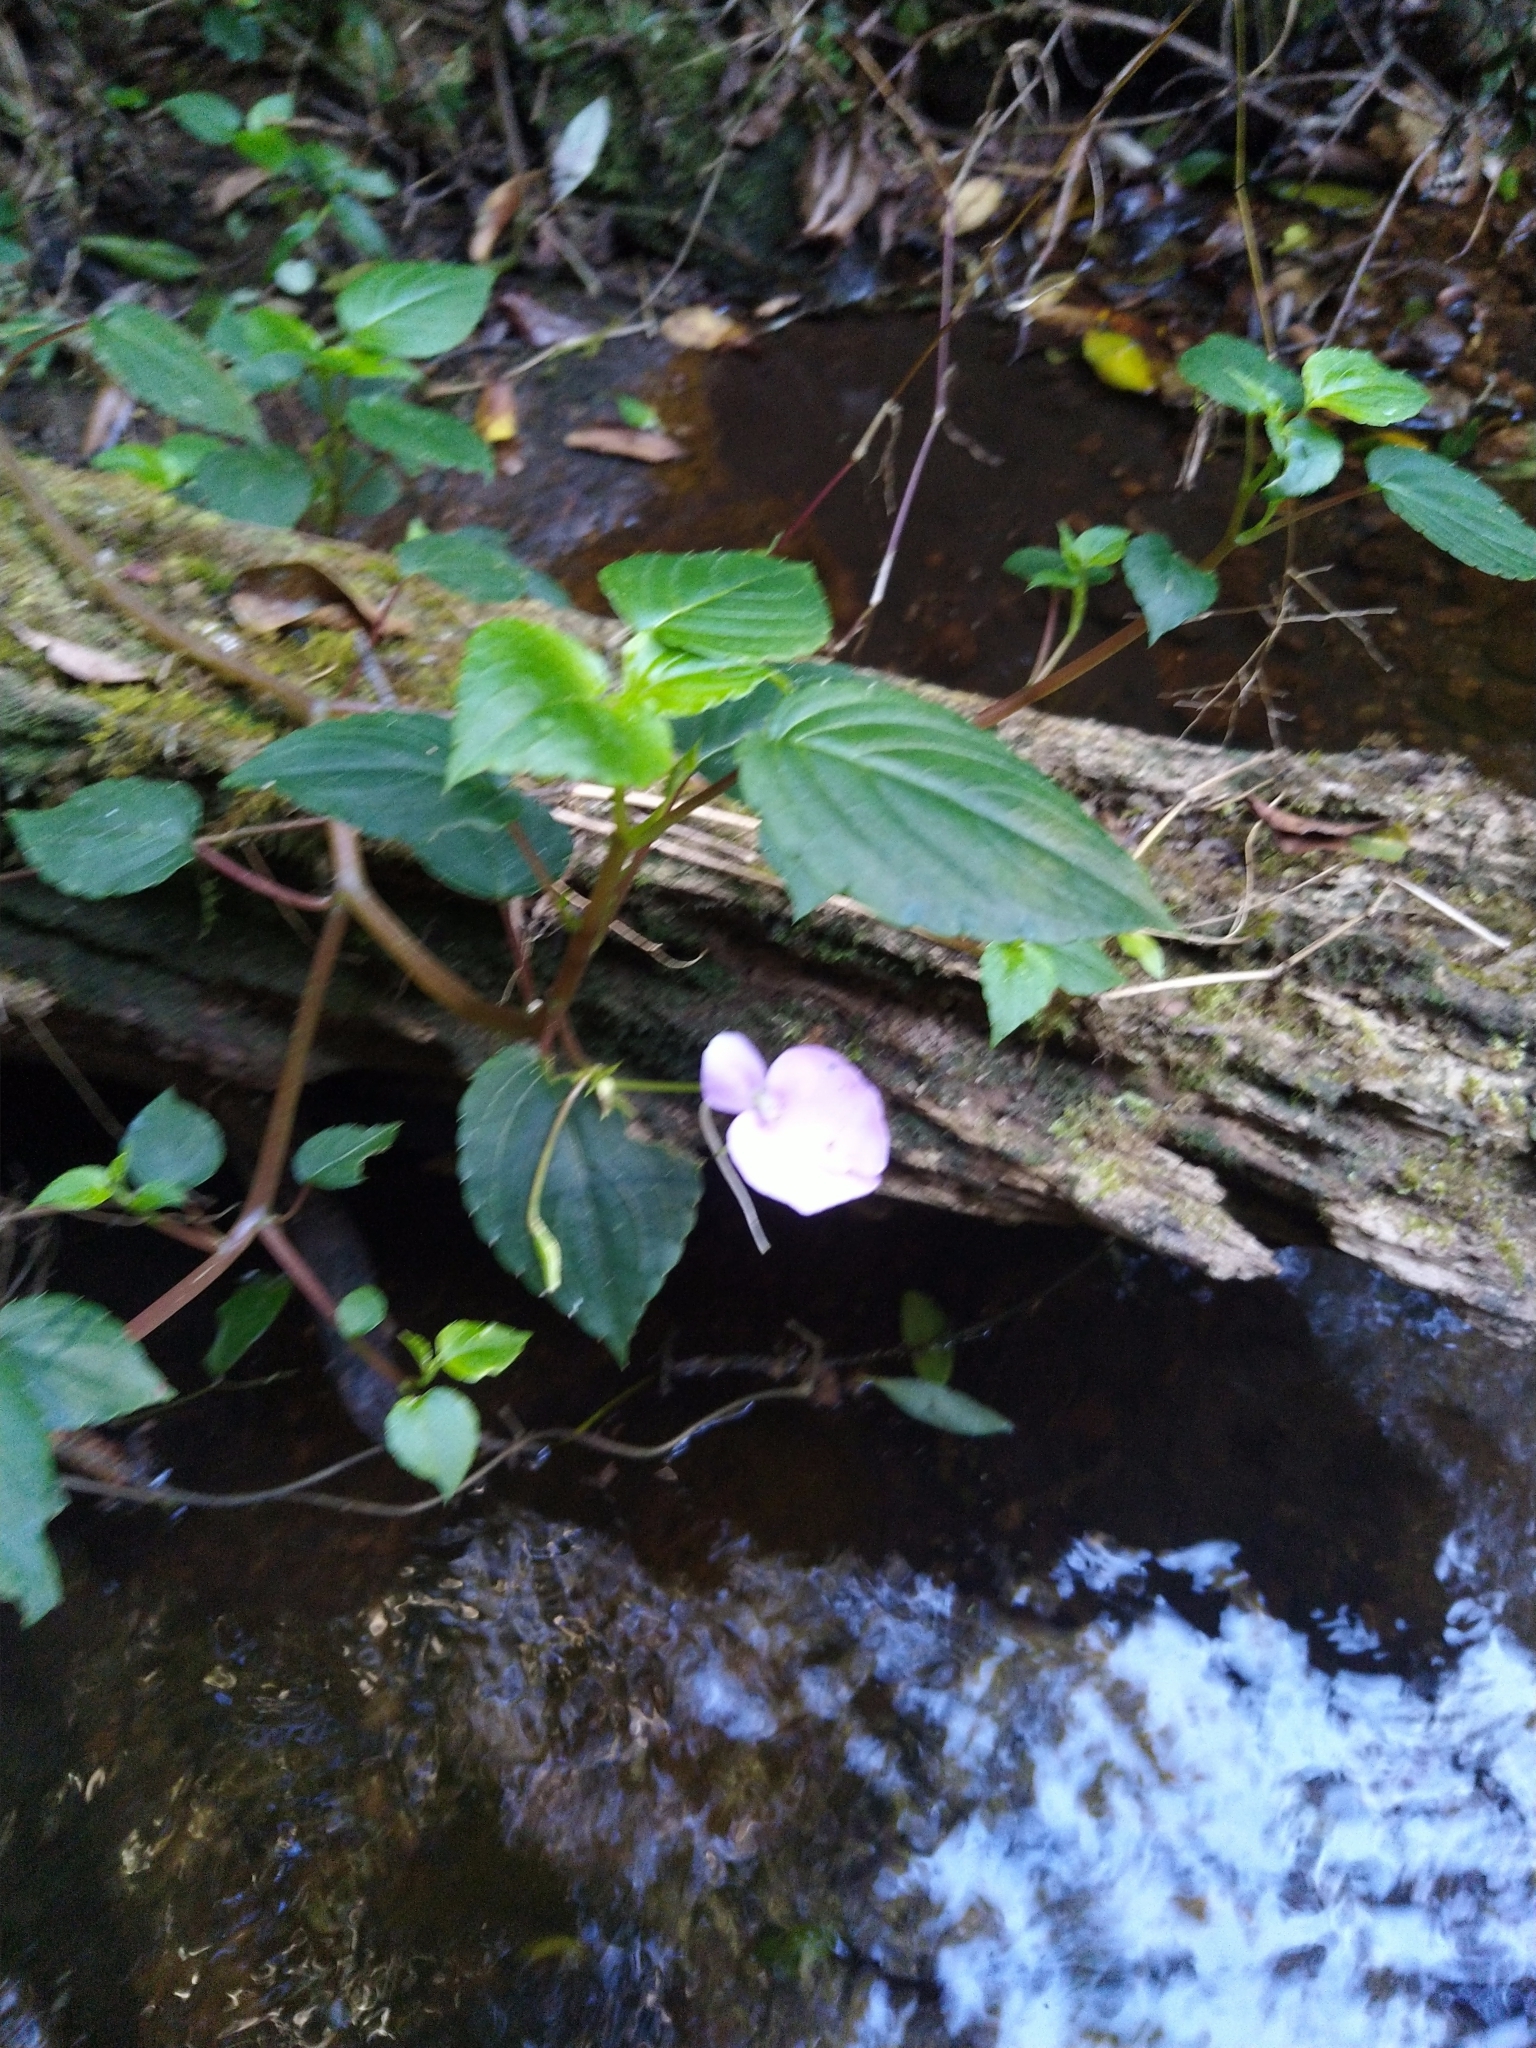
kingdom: Plantae
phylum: Tracheophyta
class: Magnoliopsida
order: Ericales
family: Balsaminaceae
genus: Impatiens
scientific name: Impatiens cordata
